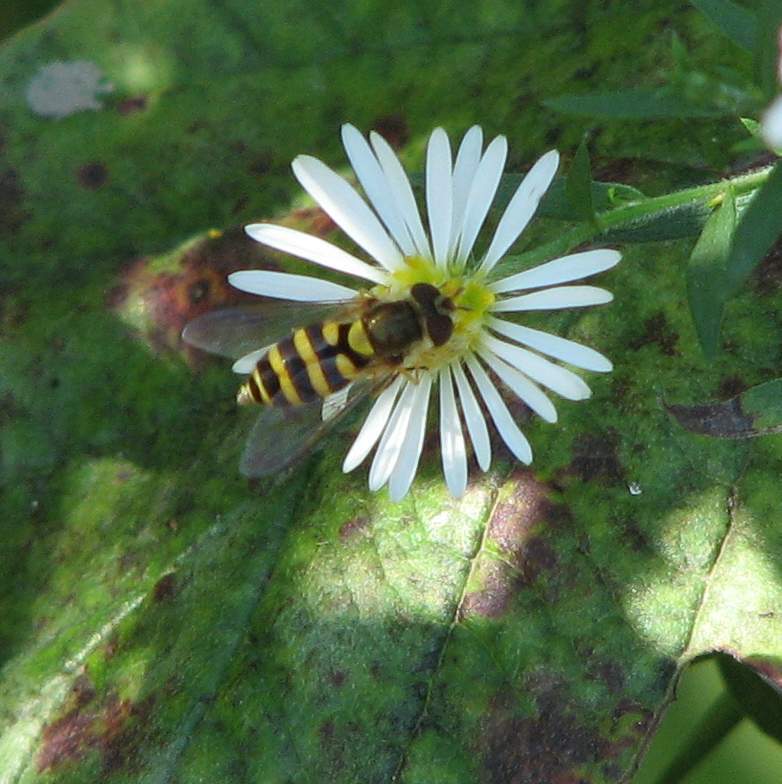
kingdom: Animalia
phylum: Arthropoda
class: Insecta
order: Diptera
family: Syrphidae
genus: Syrphus
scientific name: Syrphus
